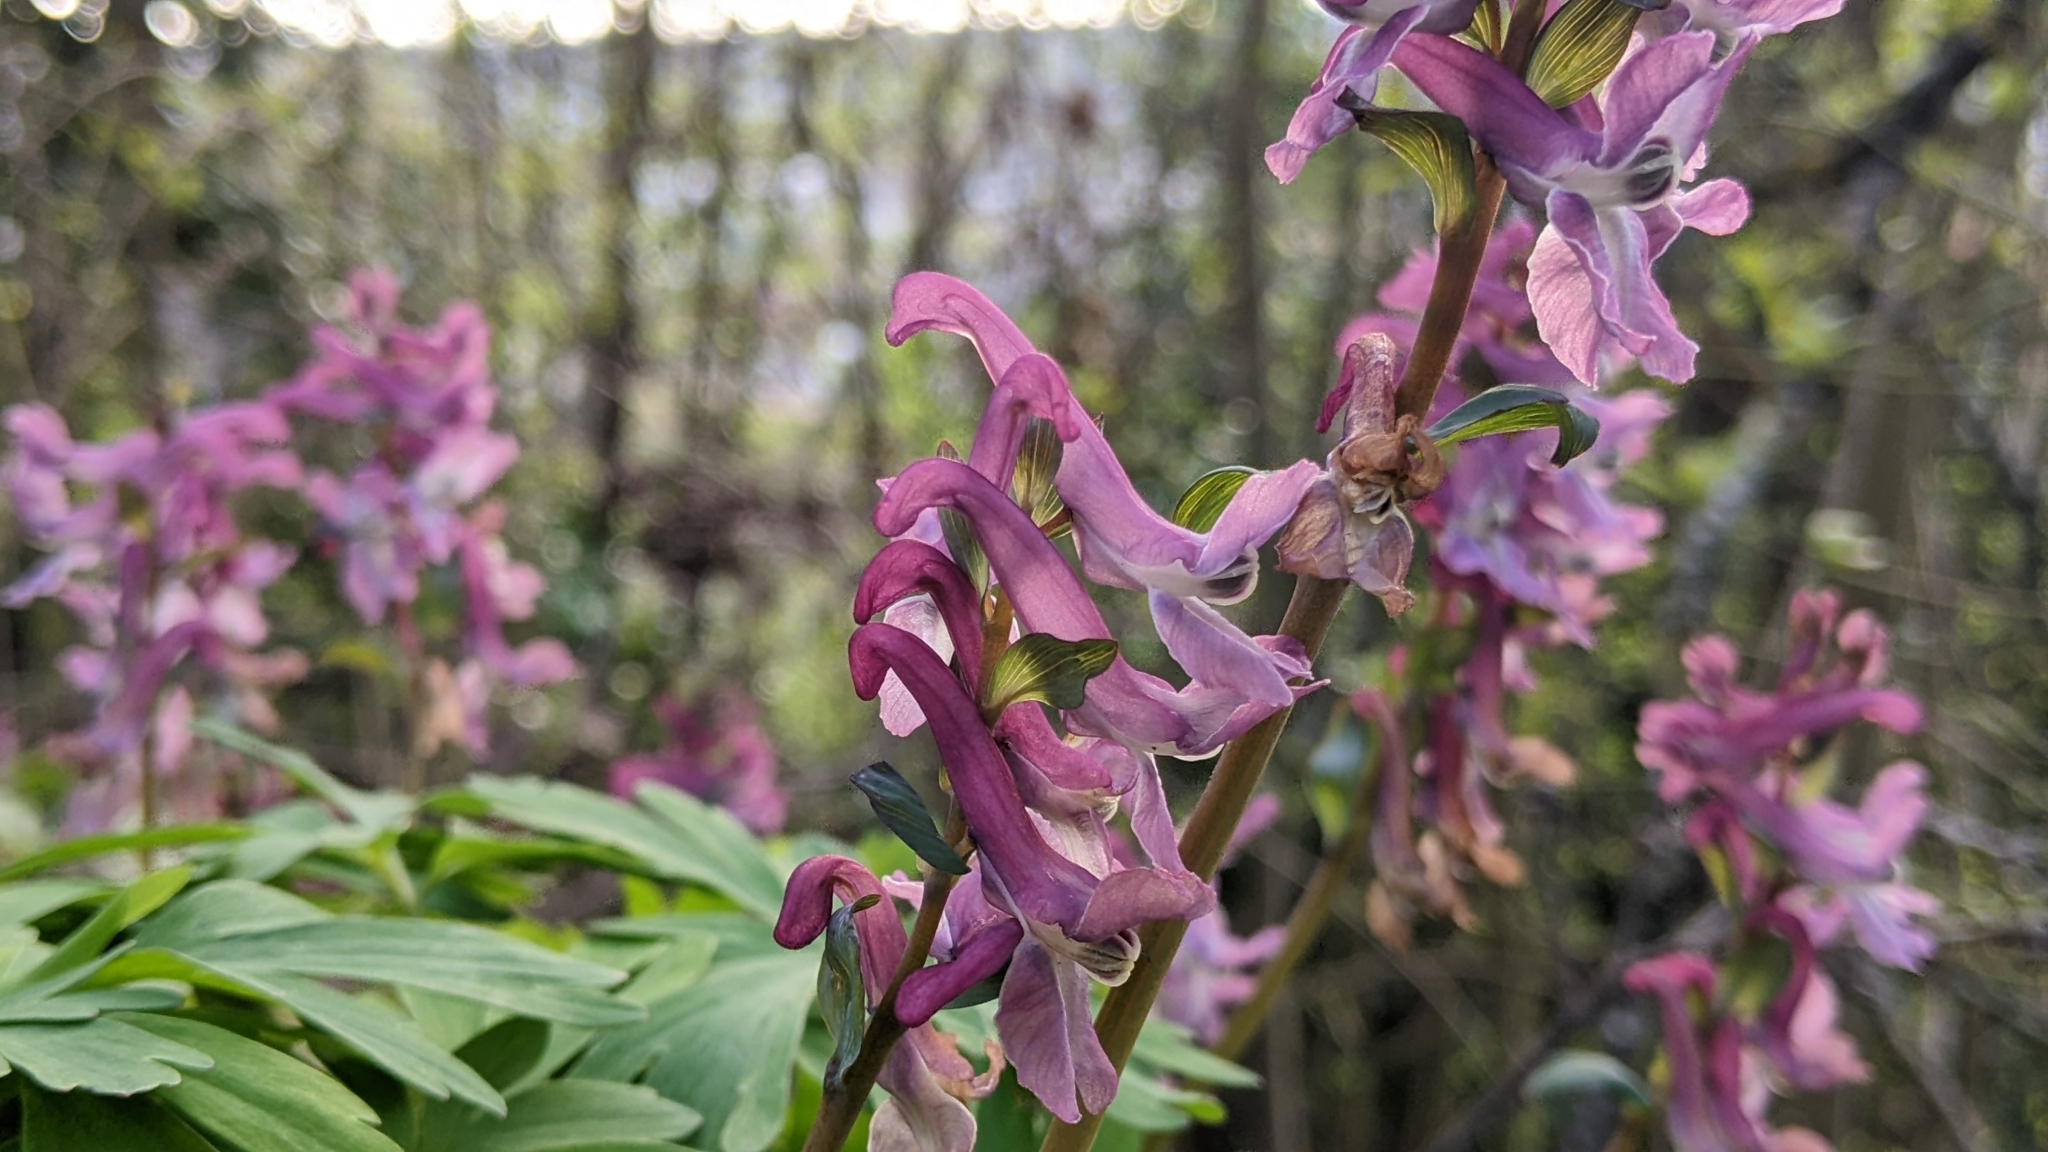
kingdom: Plantae
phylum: Tracheophyta
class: Magnoliopsida
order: Ranunculales
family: Papaveraceae
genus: Corydalis
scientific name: Corydalis cava
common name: Hollowroot
